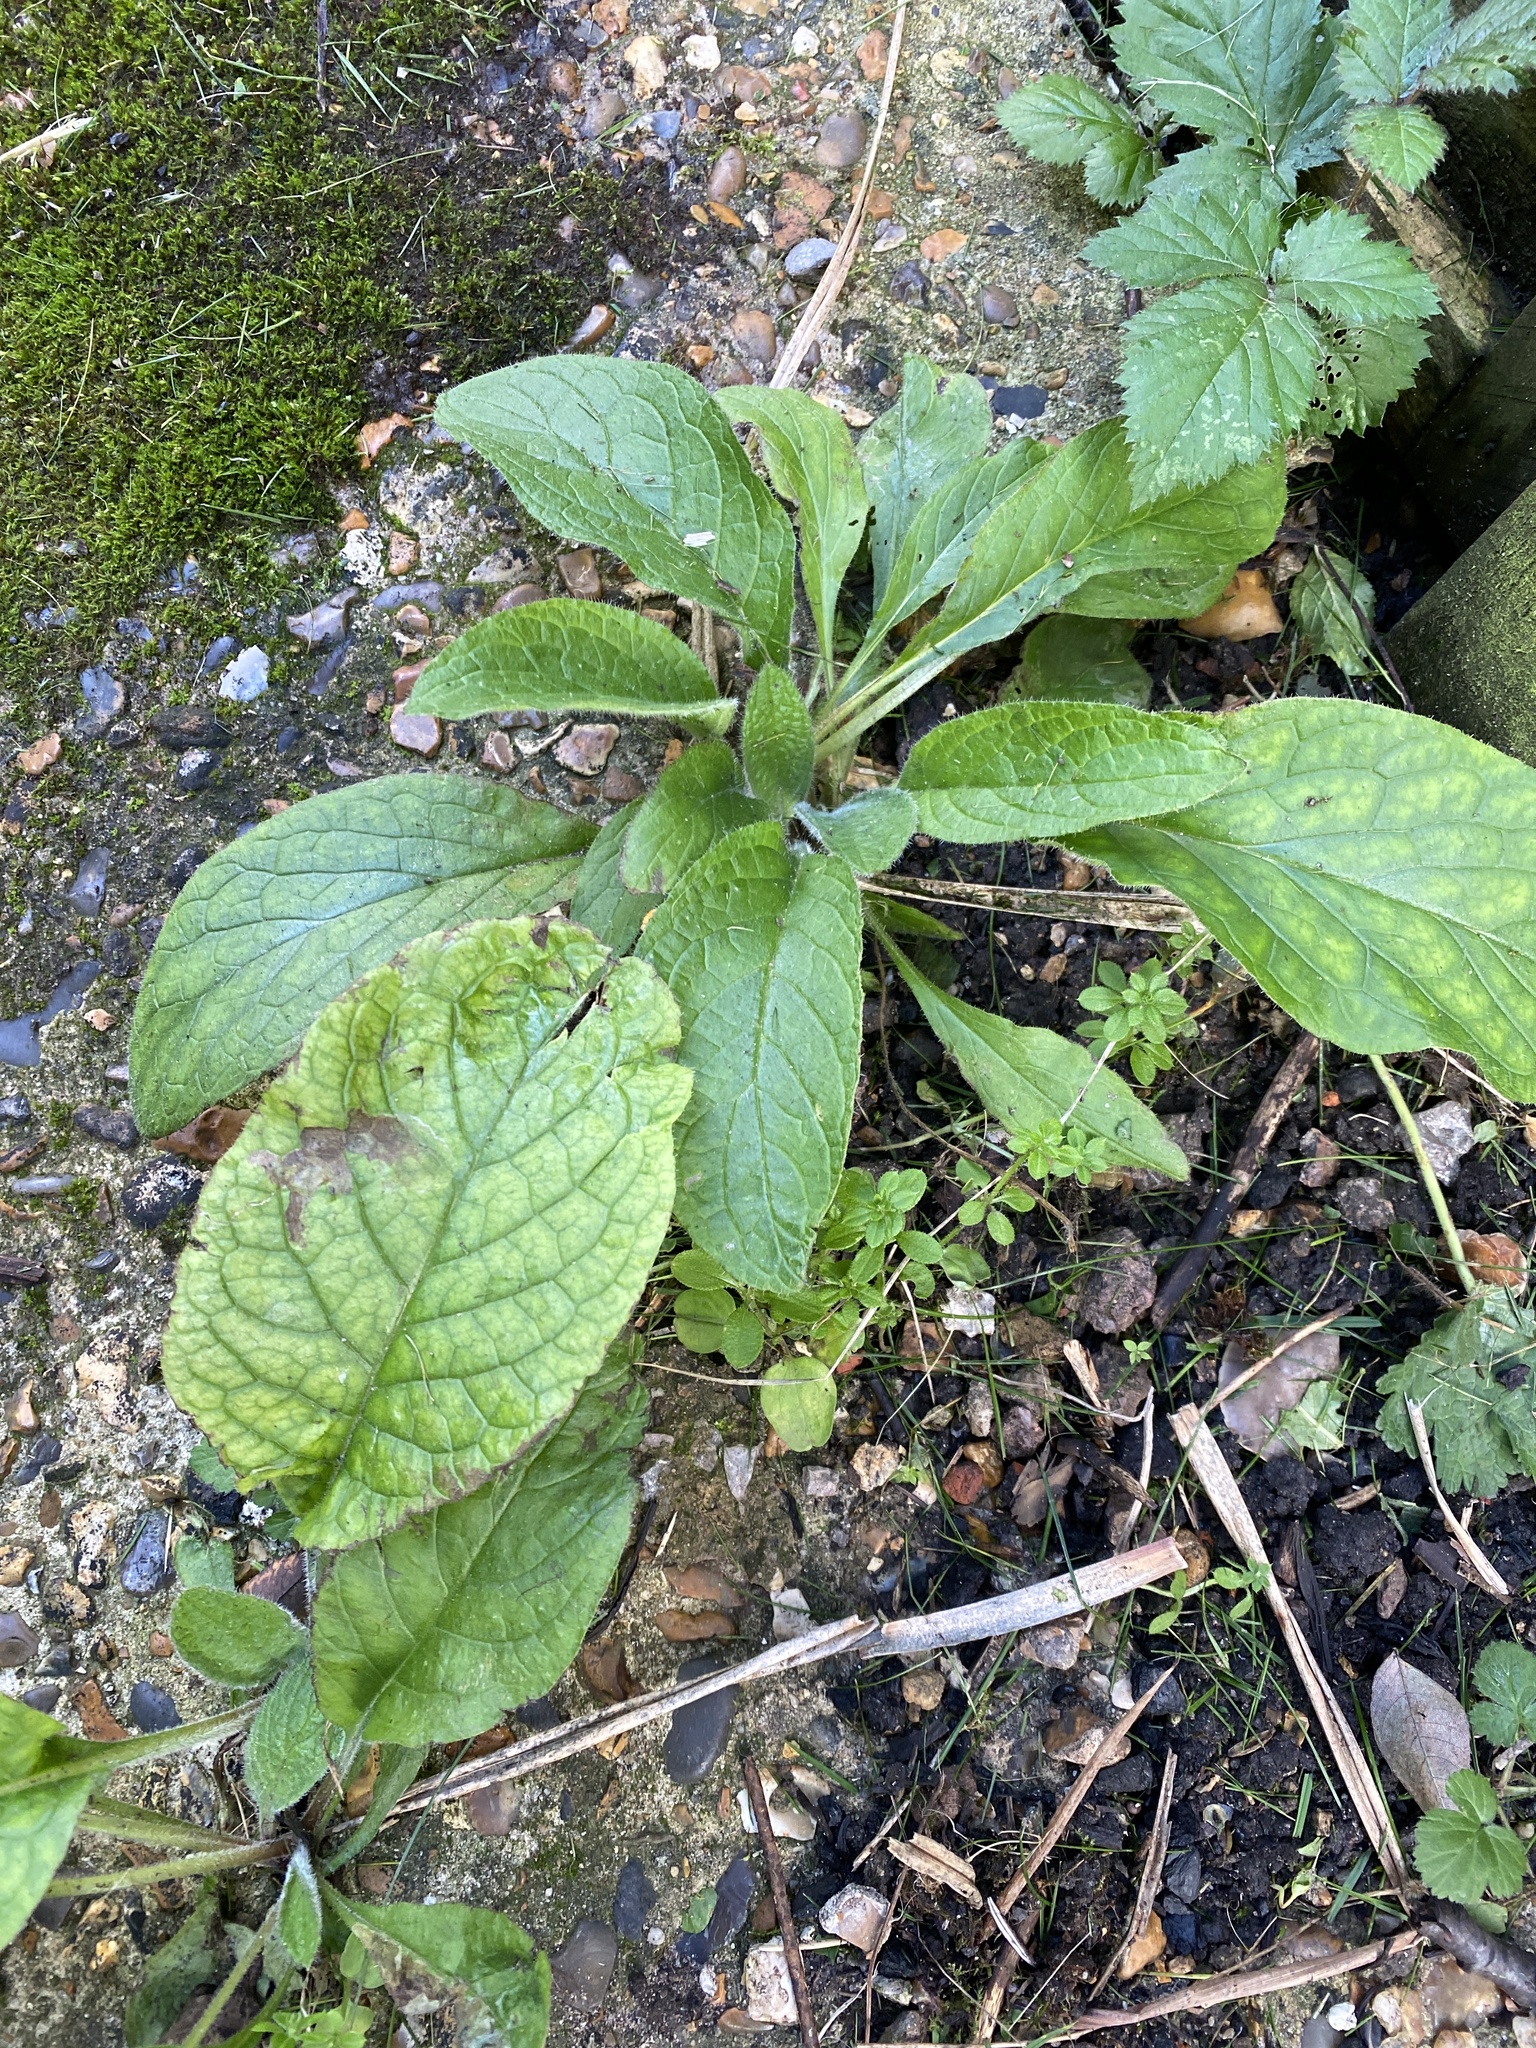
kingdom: Plantae
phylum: Tracheophyta
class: Magnoliopsida
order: Boraginales
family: Boraginaceae
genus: Pentaglottis
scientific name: Pentaglottis sempervirens
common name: Green alkanet
